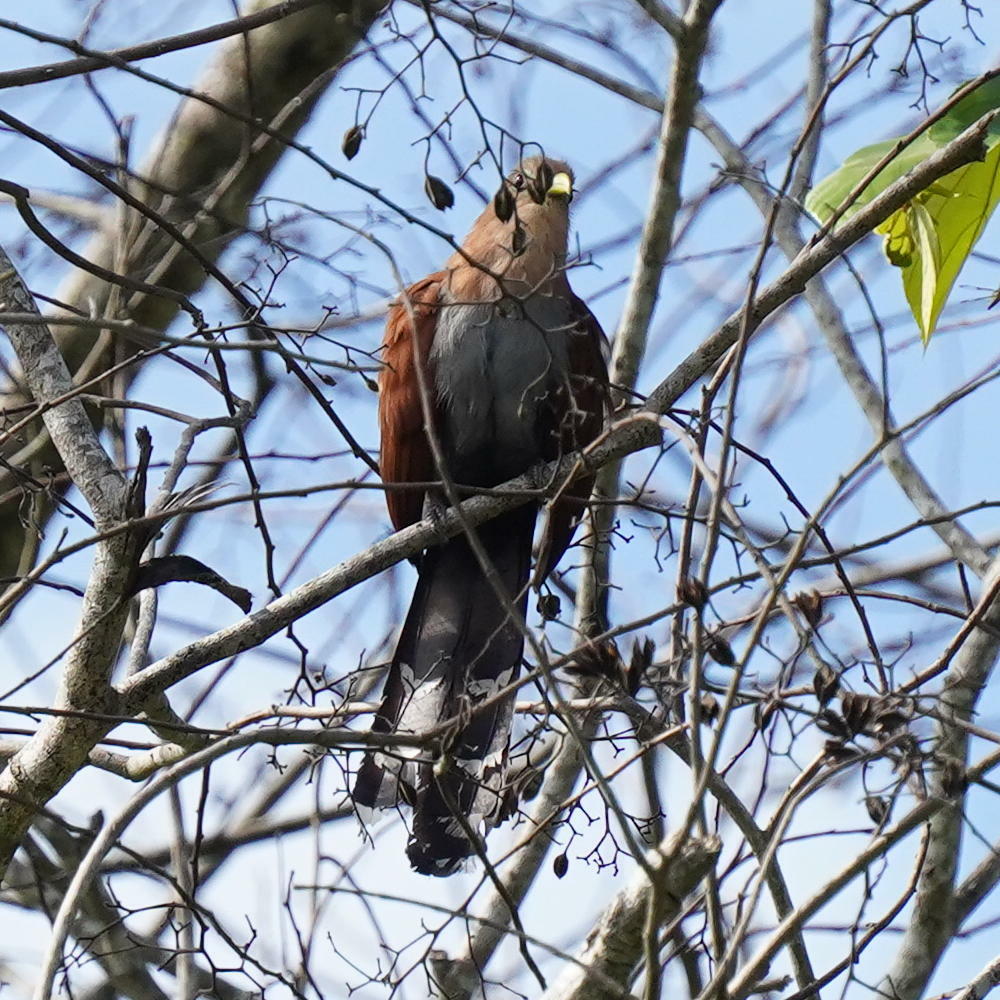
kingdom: Animalia
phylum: Chordata
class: Aves
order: Cuculiformes
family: Cuculidae
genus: Piaya
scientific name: Piaya cayana
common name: Squirrel cuckoo
